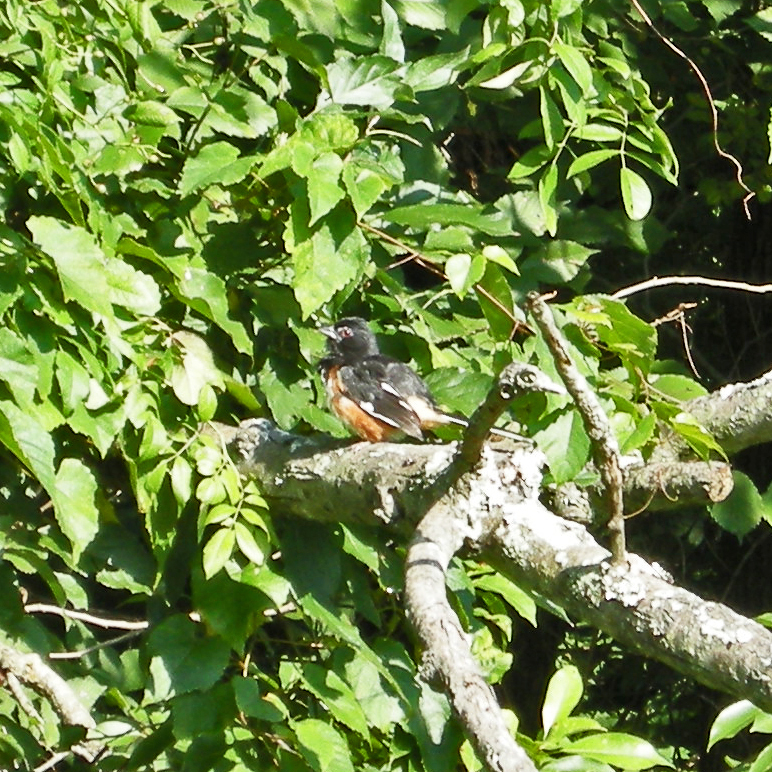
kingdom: Animalia
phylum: Chordata
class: Aves
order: Passeriformes
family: Passerellidae
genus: Pipilo
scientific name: Pipilo erythrophthalmus
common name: Eastern towhee
